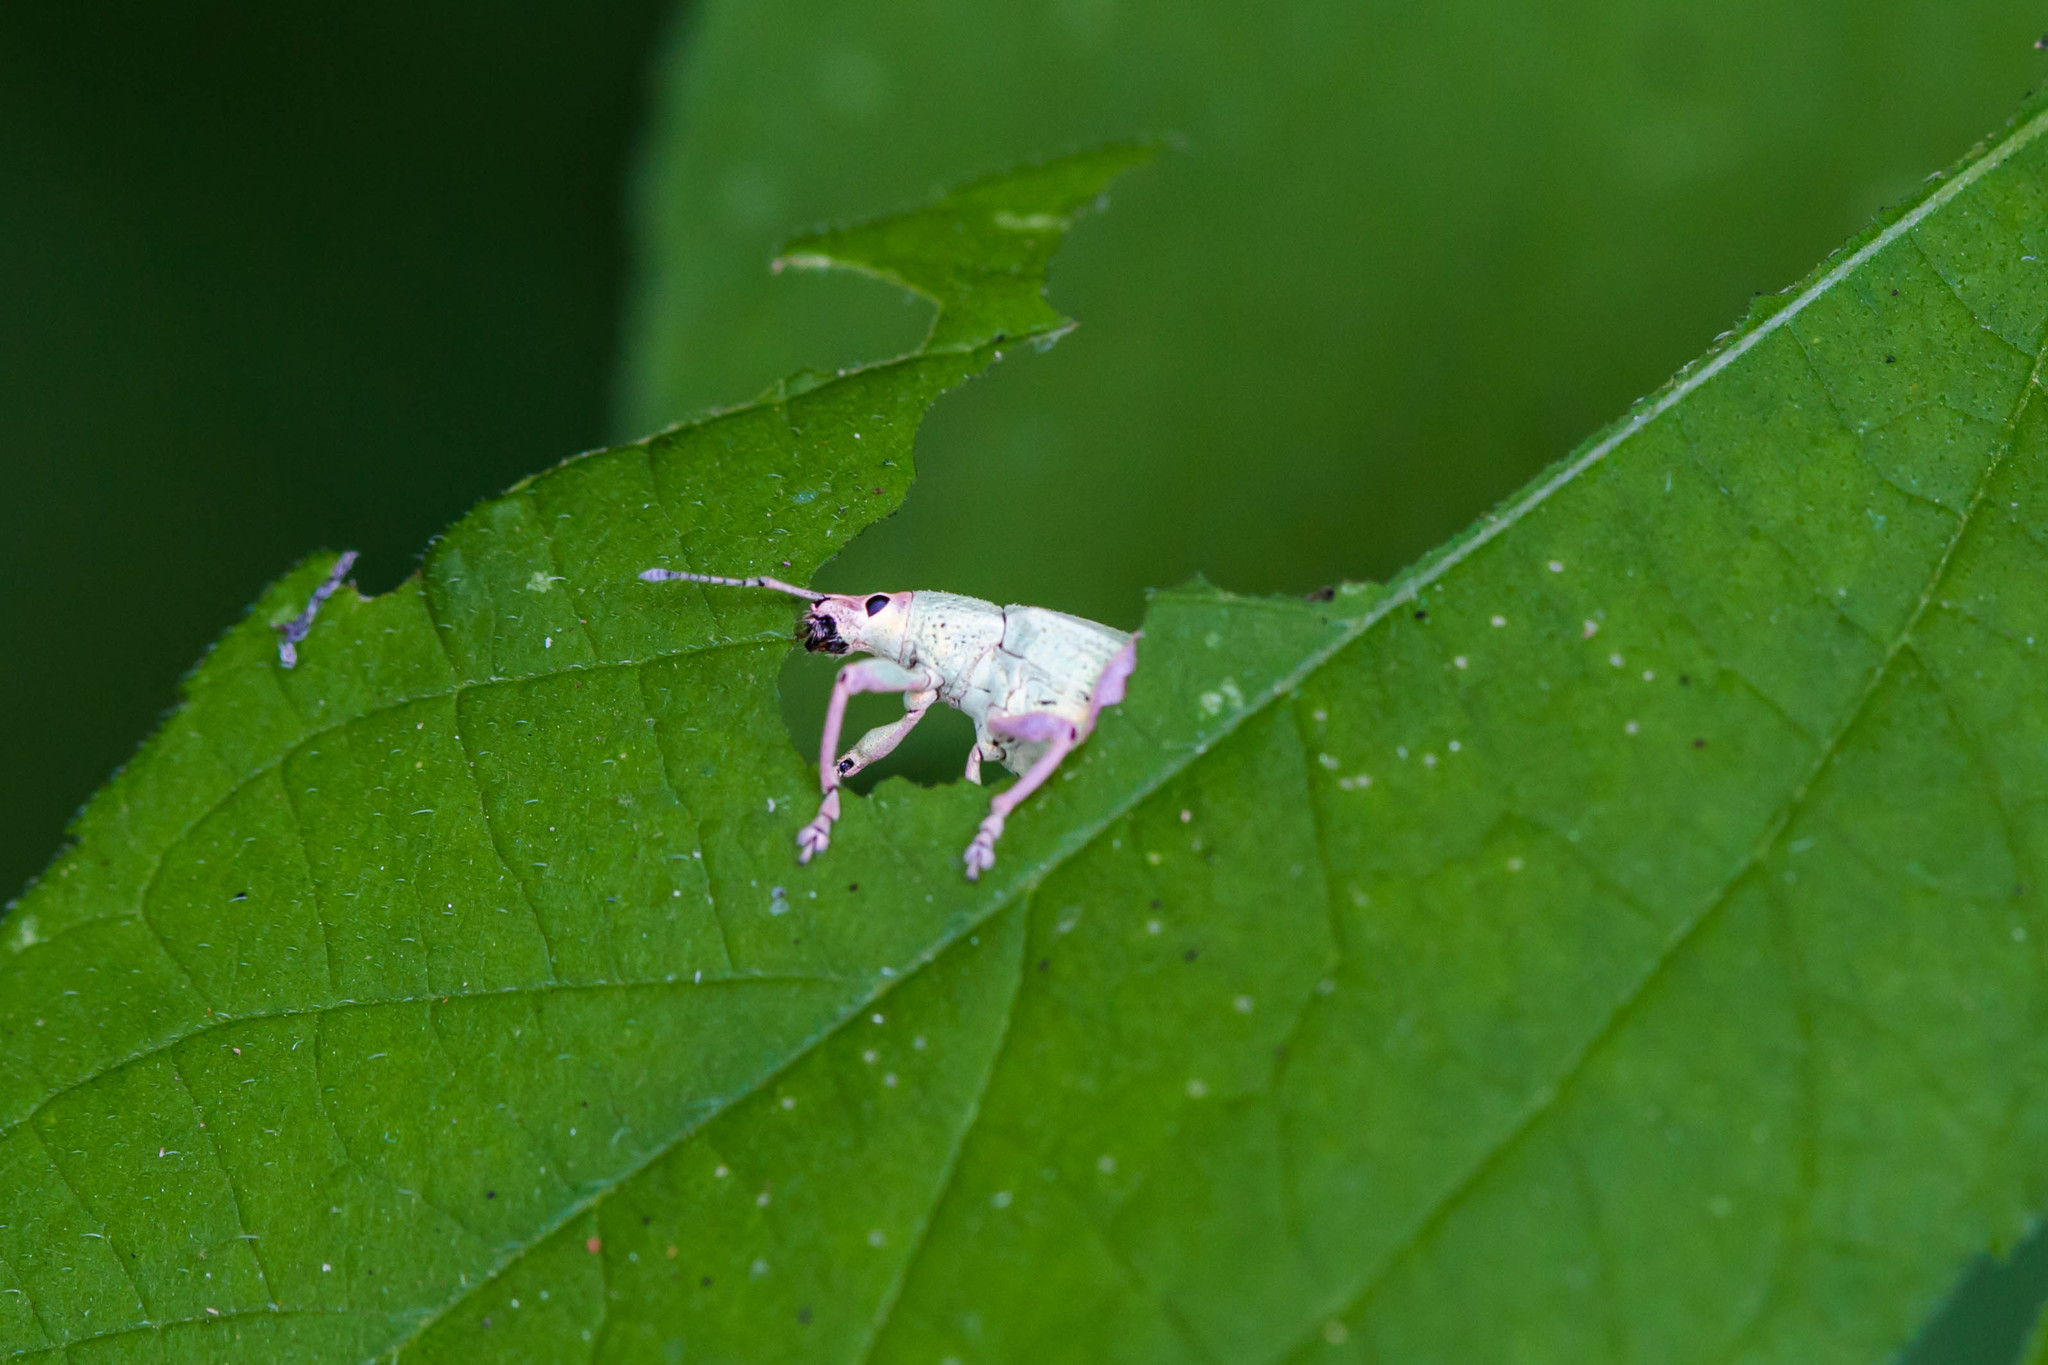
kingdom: Animalia
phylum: Arthropoda
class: Insecta
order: Coleoptera
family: Curculionidae
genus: Compsus
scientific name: Compsus auricephalus
